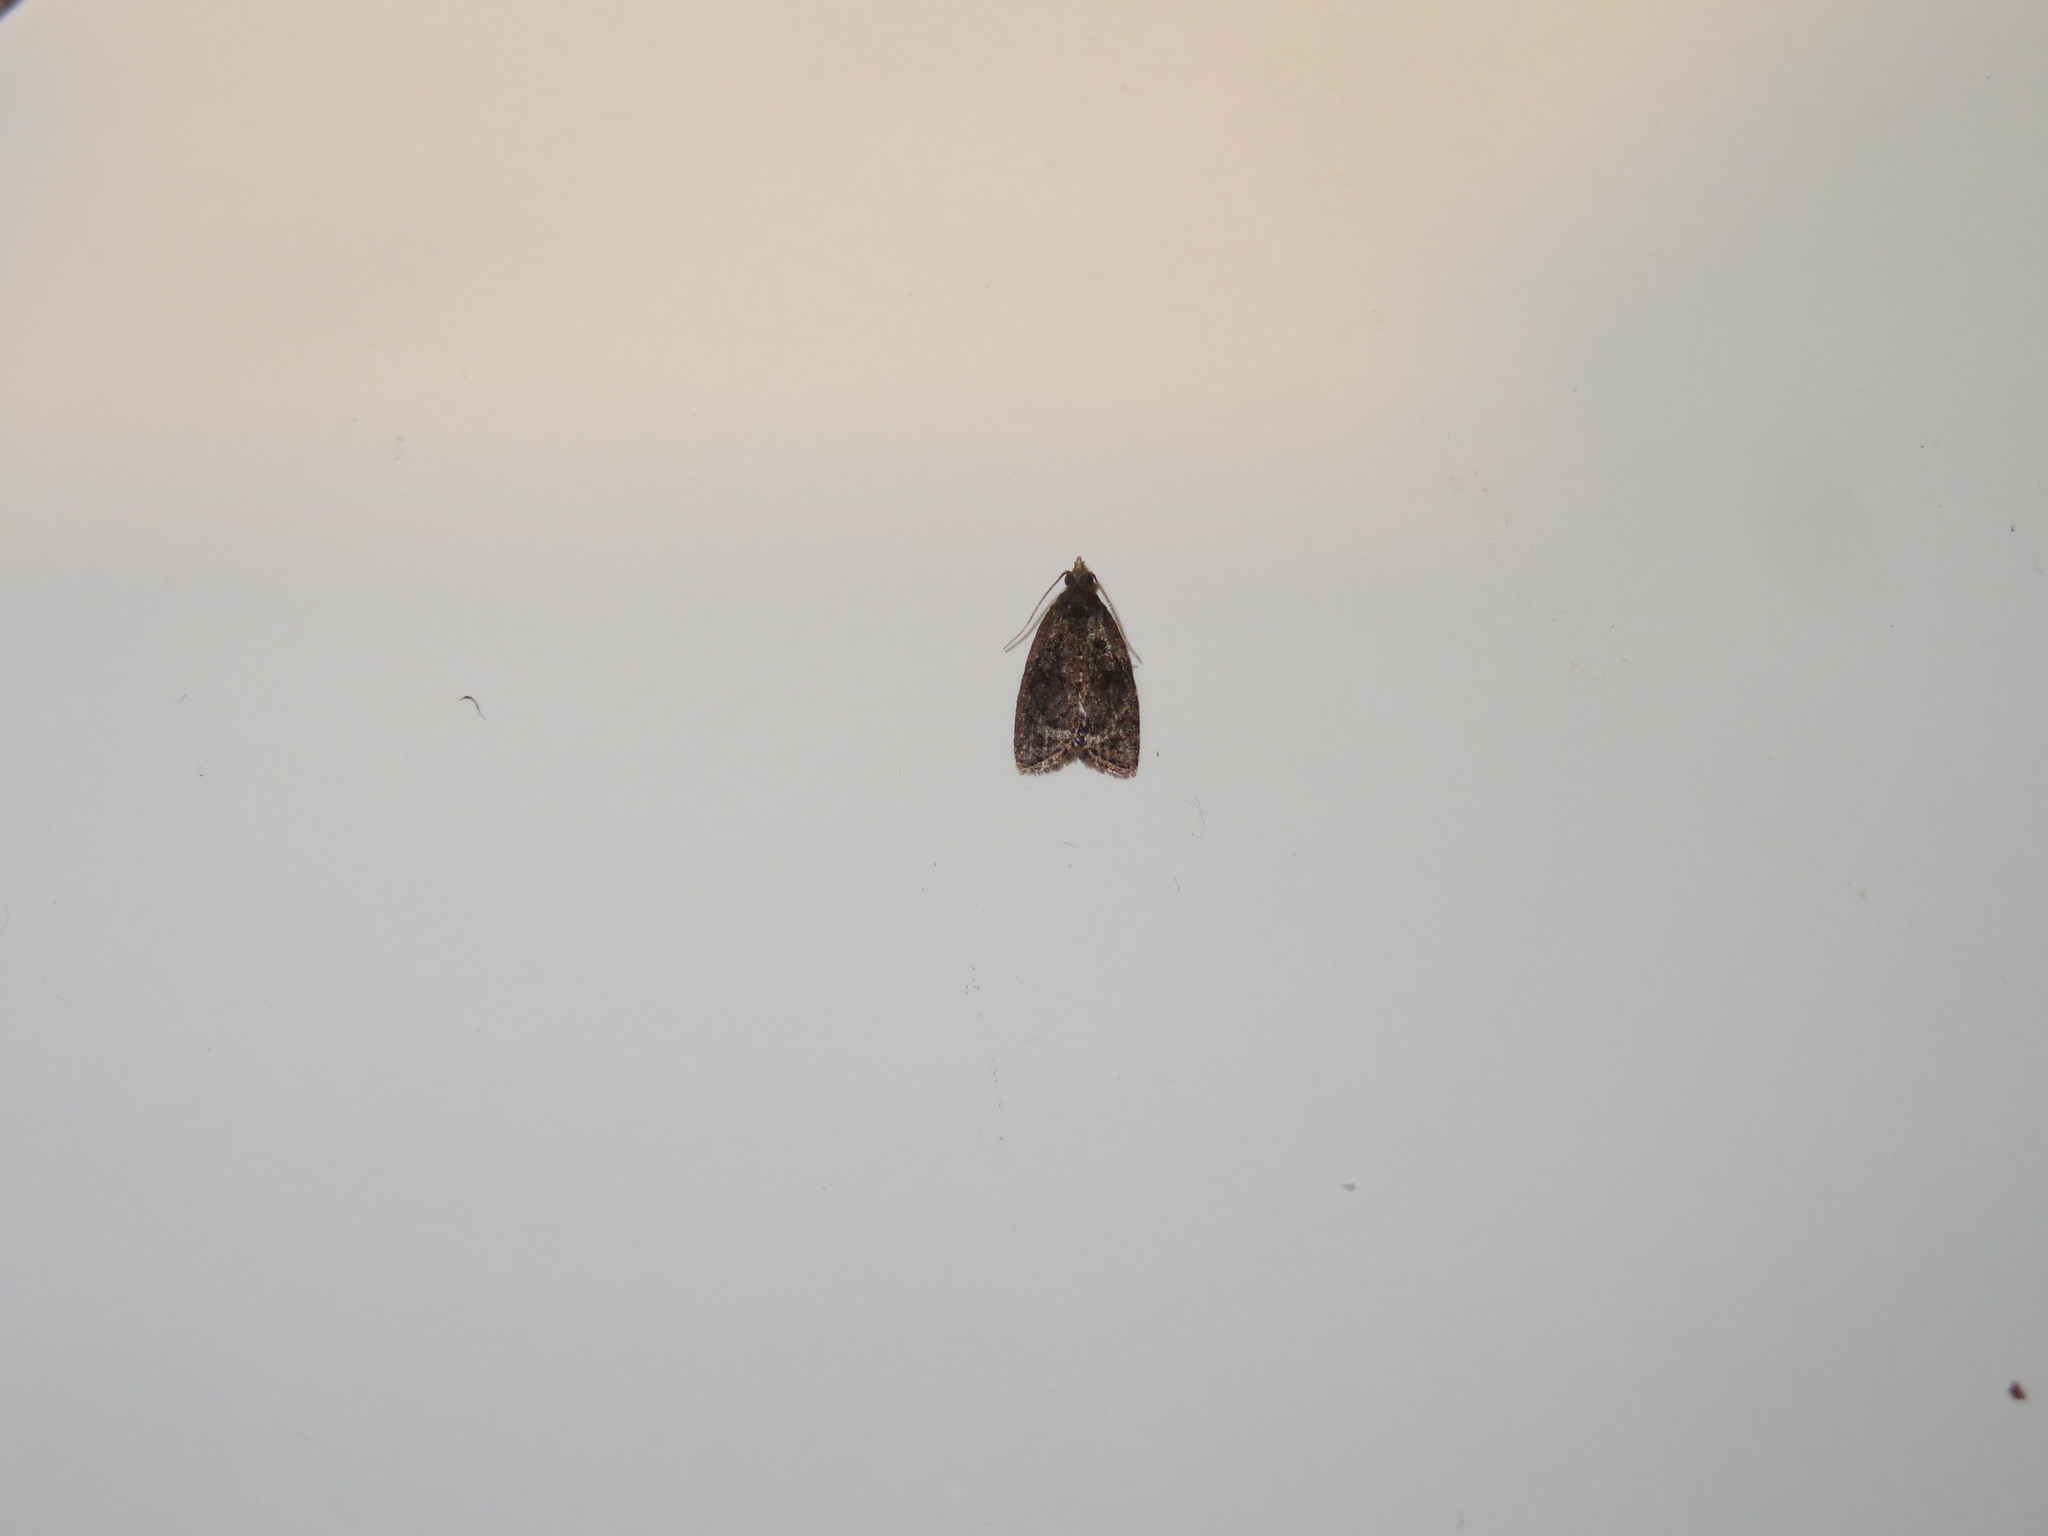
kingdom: Animalia
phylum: Arthropoda
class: Insecta
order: Lepidoptera
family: Tortricidae
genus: Capua
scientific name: Capua intractana
